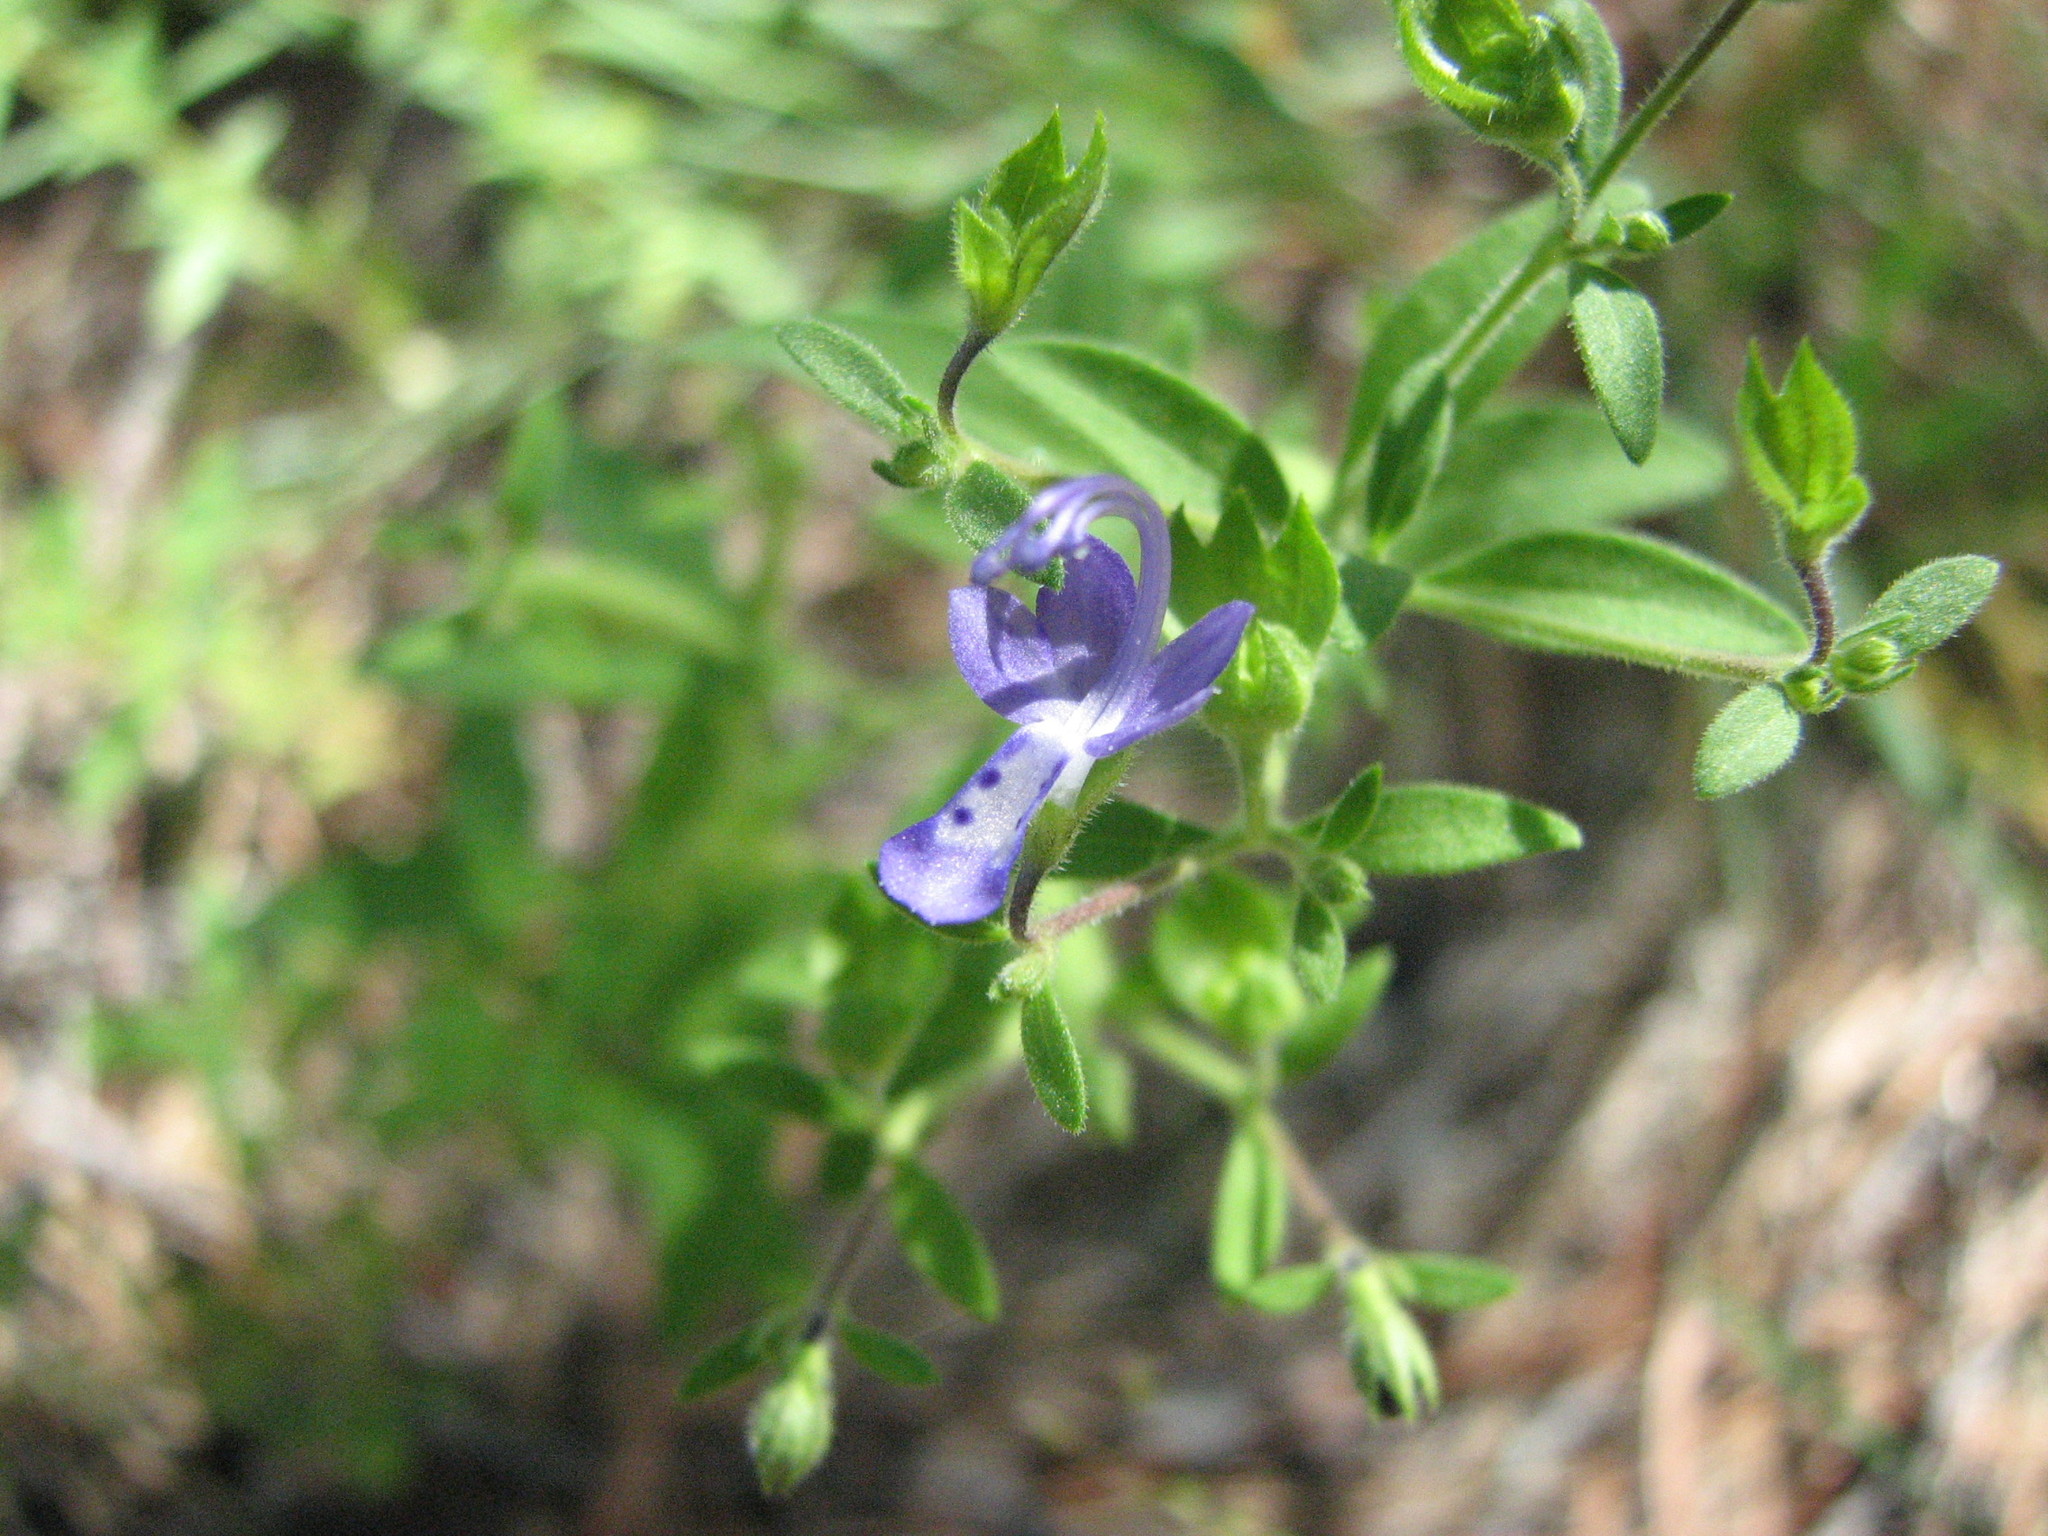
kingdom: Plantae
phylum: Tracheophyta
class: Magnoliopsida
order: Lamiales
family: Lamiaceae
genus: Trichostema
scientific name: Trichostema dichotomum
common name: Bastard pennyroyal
